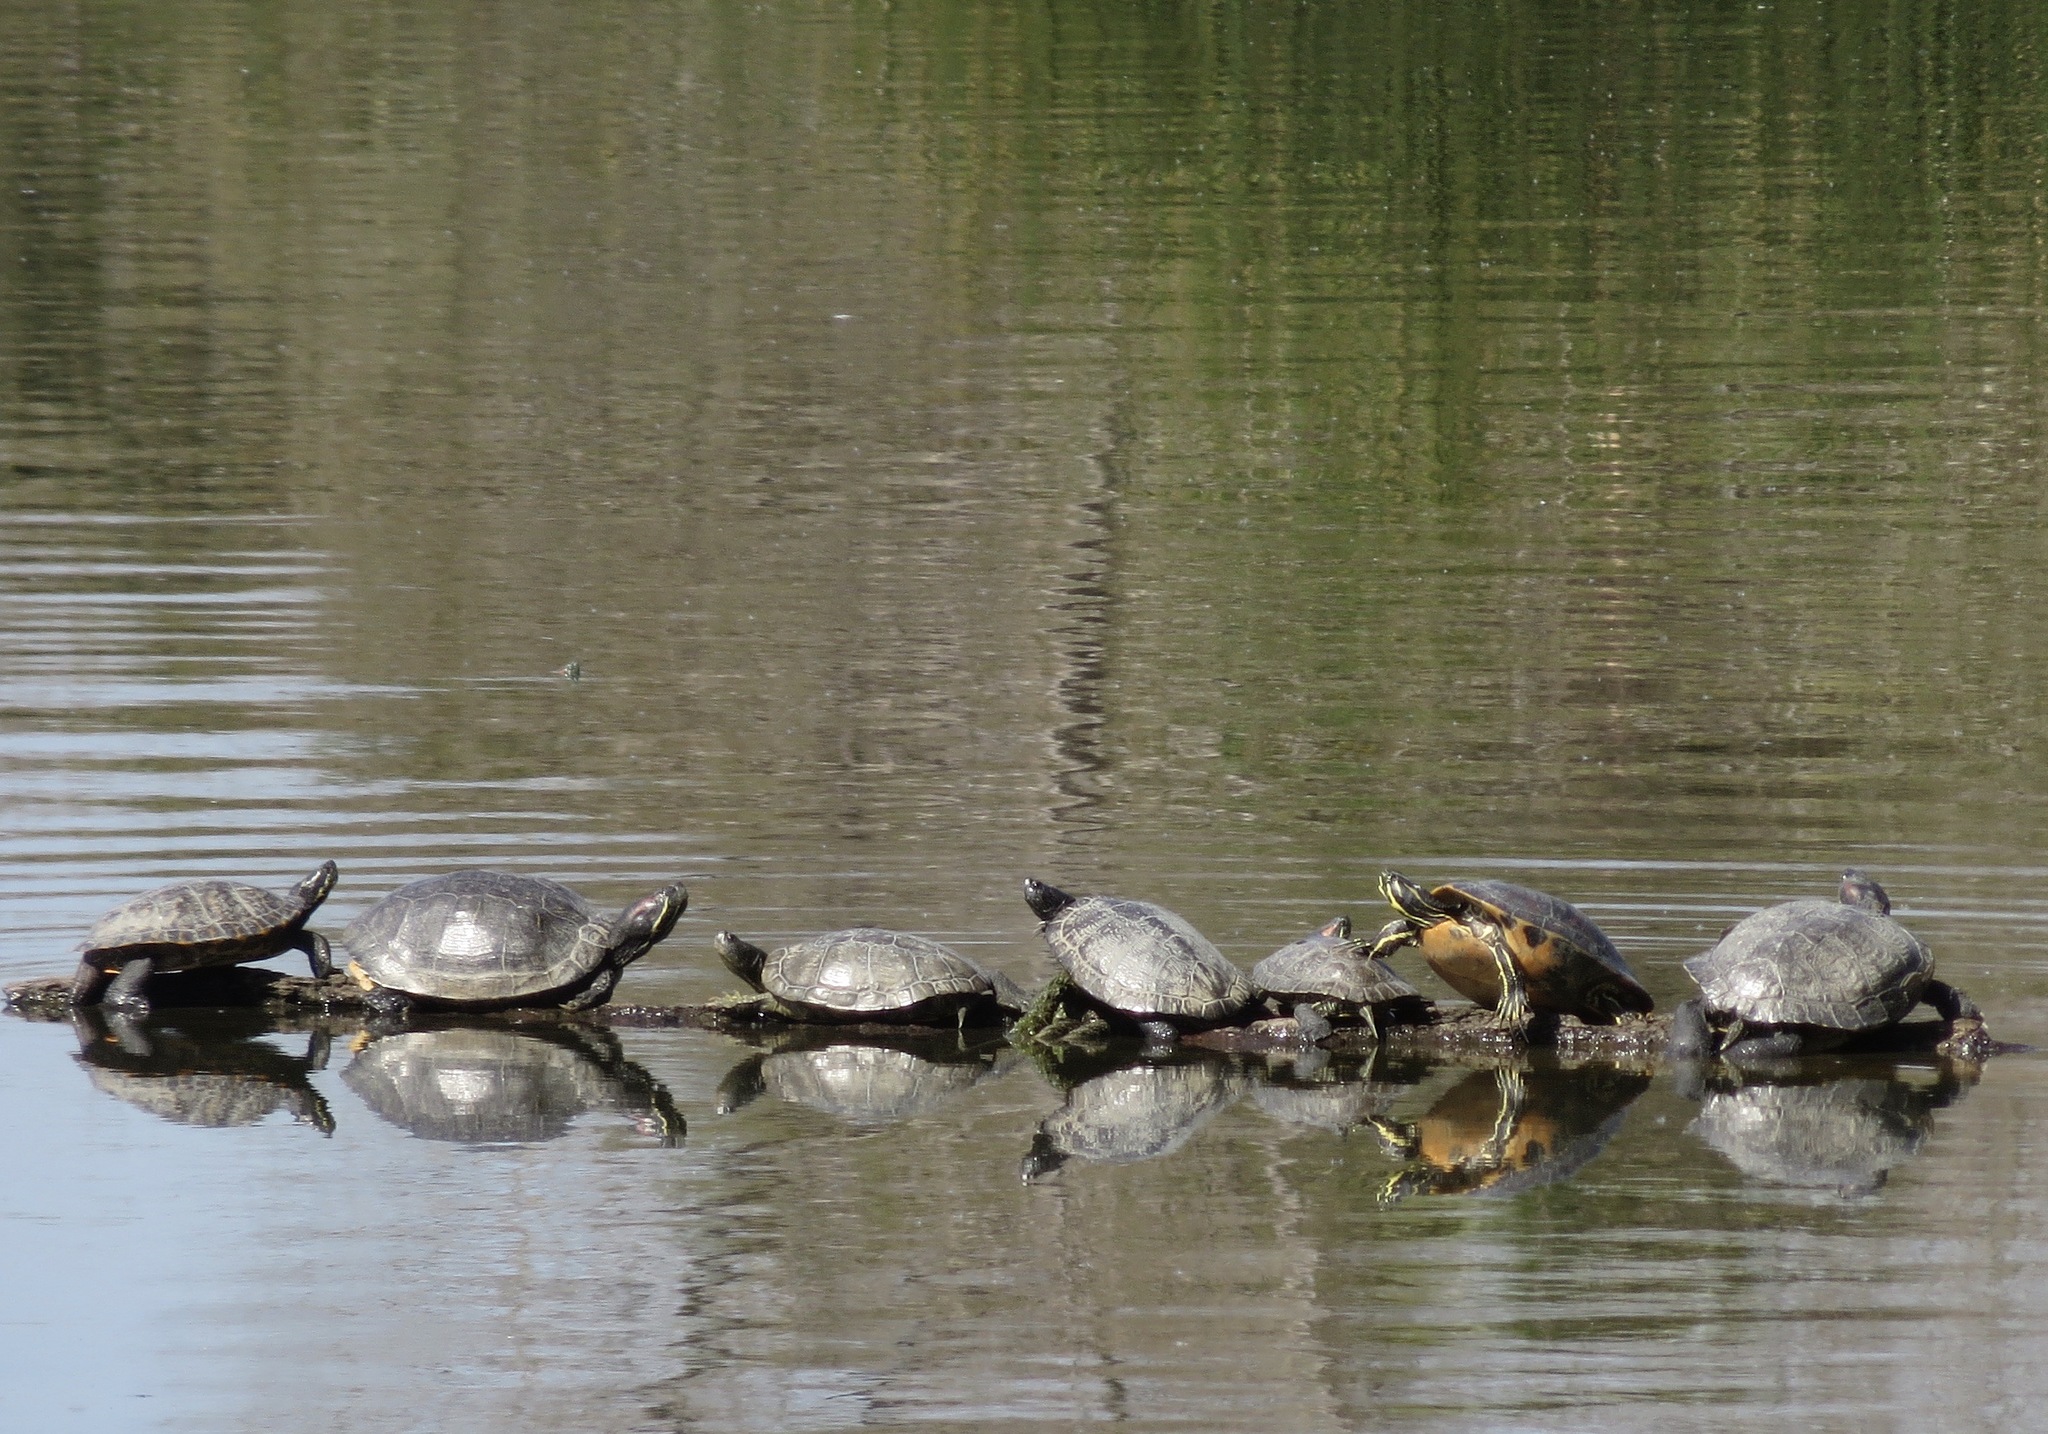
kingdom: Animalia
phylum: Chordata
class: Testudines
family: Emydidae
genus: Trachemys
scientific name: Trachemys scripta
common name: Slider
